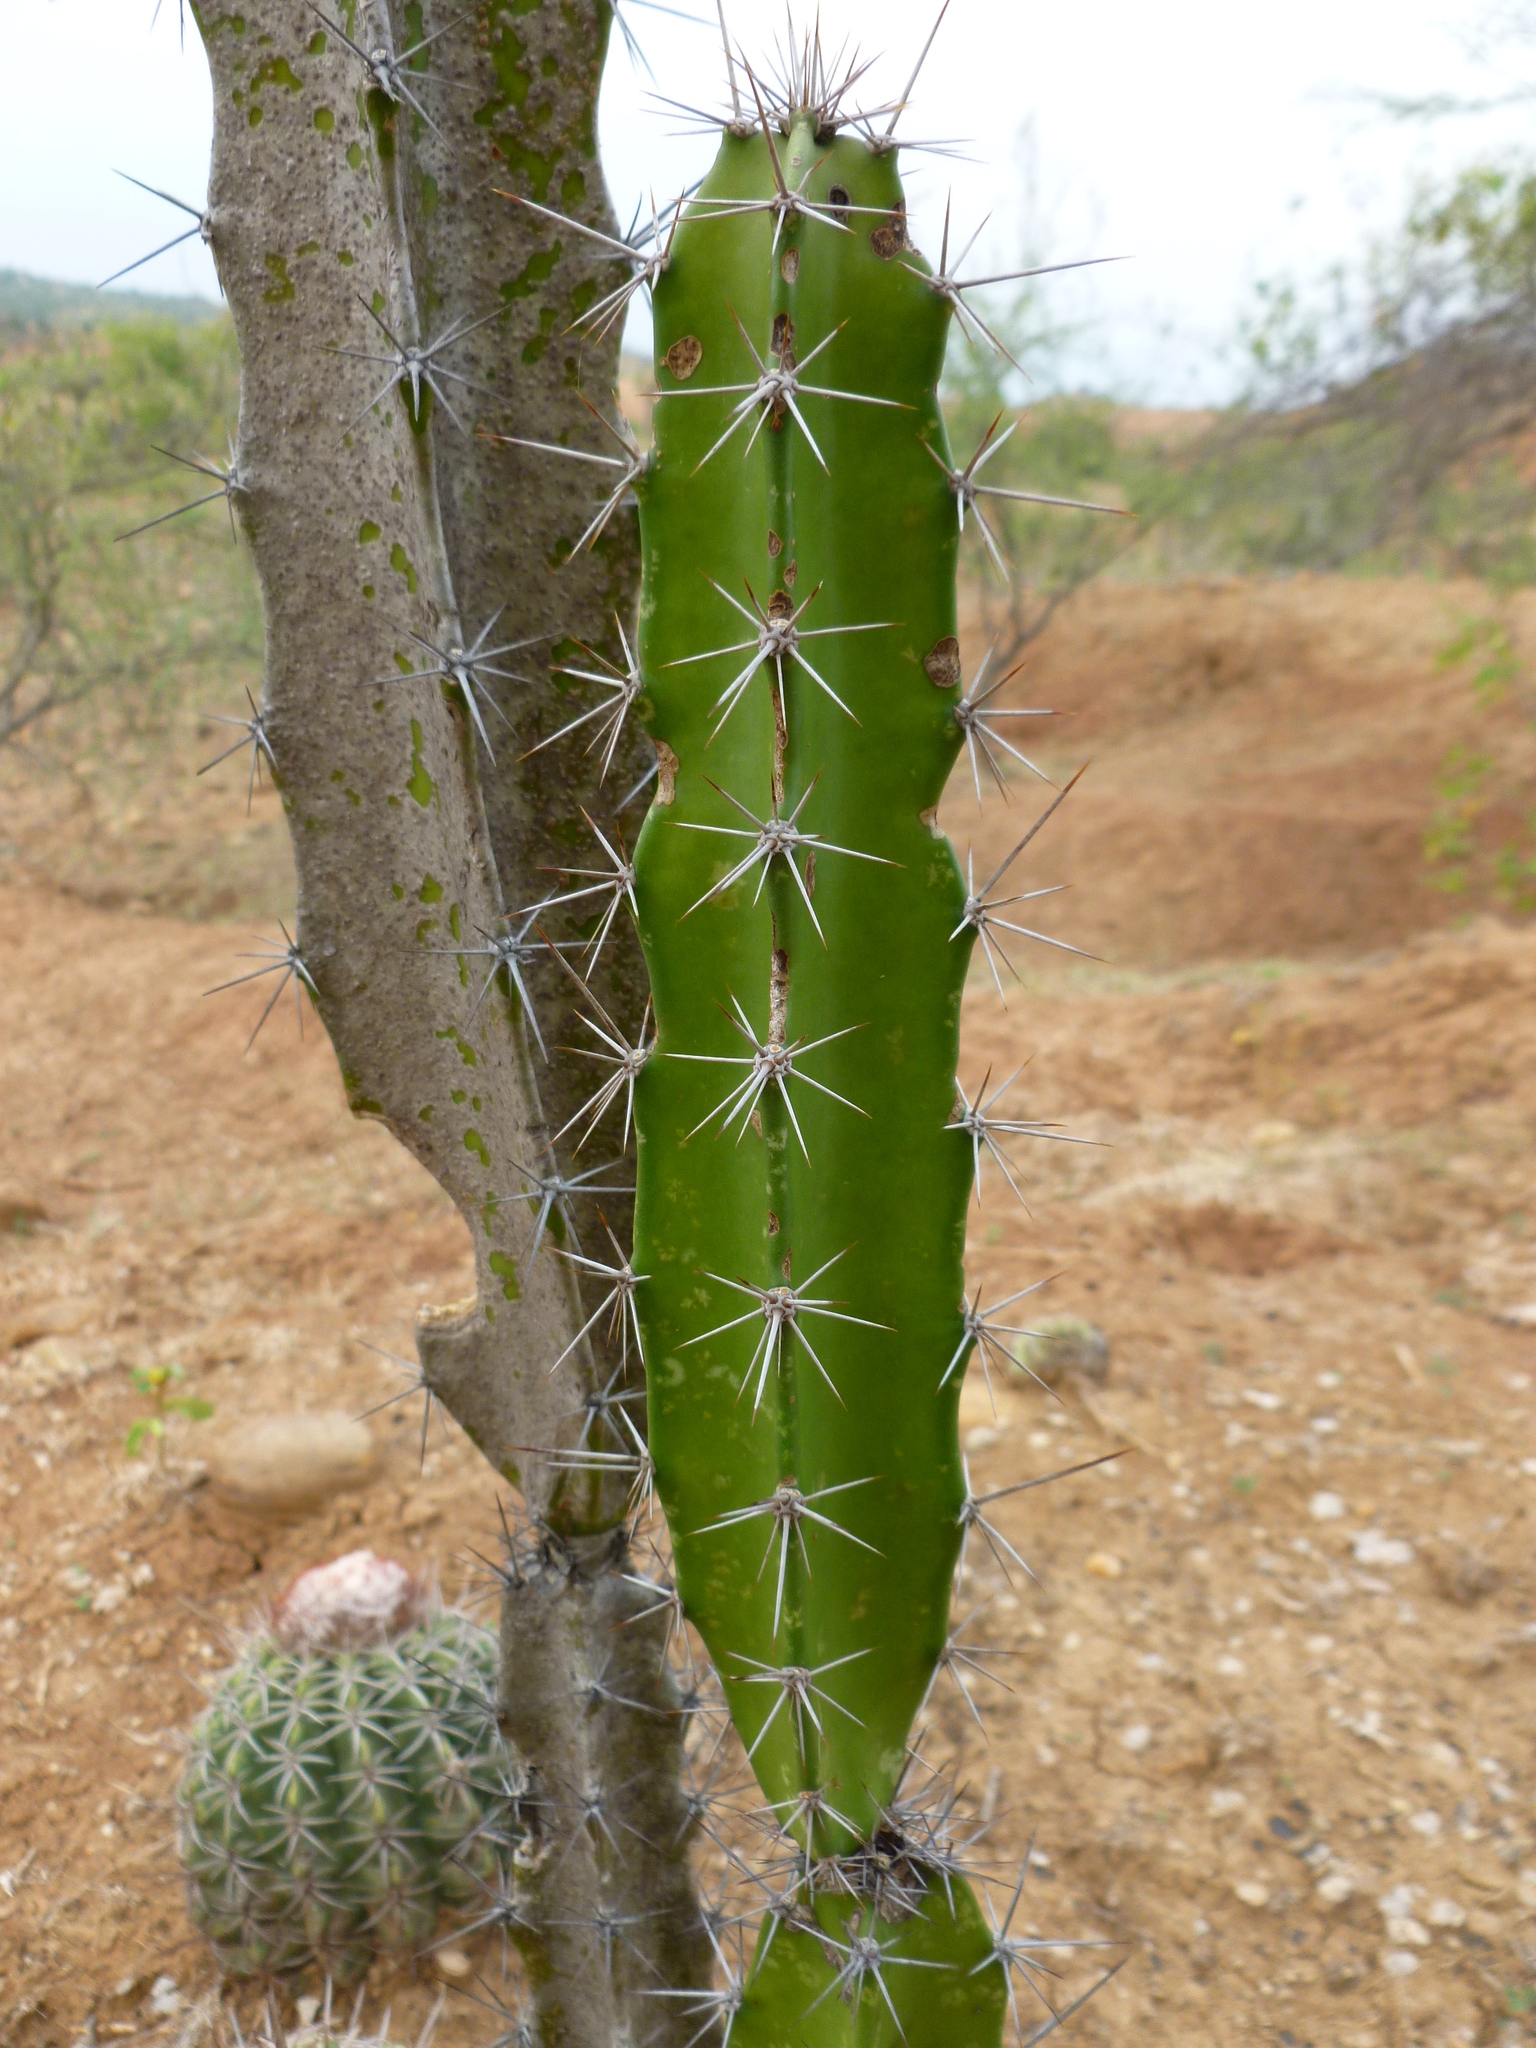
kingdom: Plantae
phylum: Tracheophyta
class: Magnoliopsida
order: Caryophyllales
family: Cactaceae
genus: Acanthocereus
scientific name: Acanthocereus tetragonus
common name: Triangle cactus
